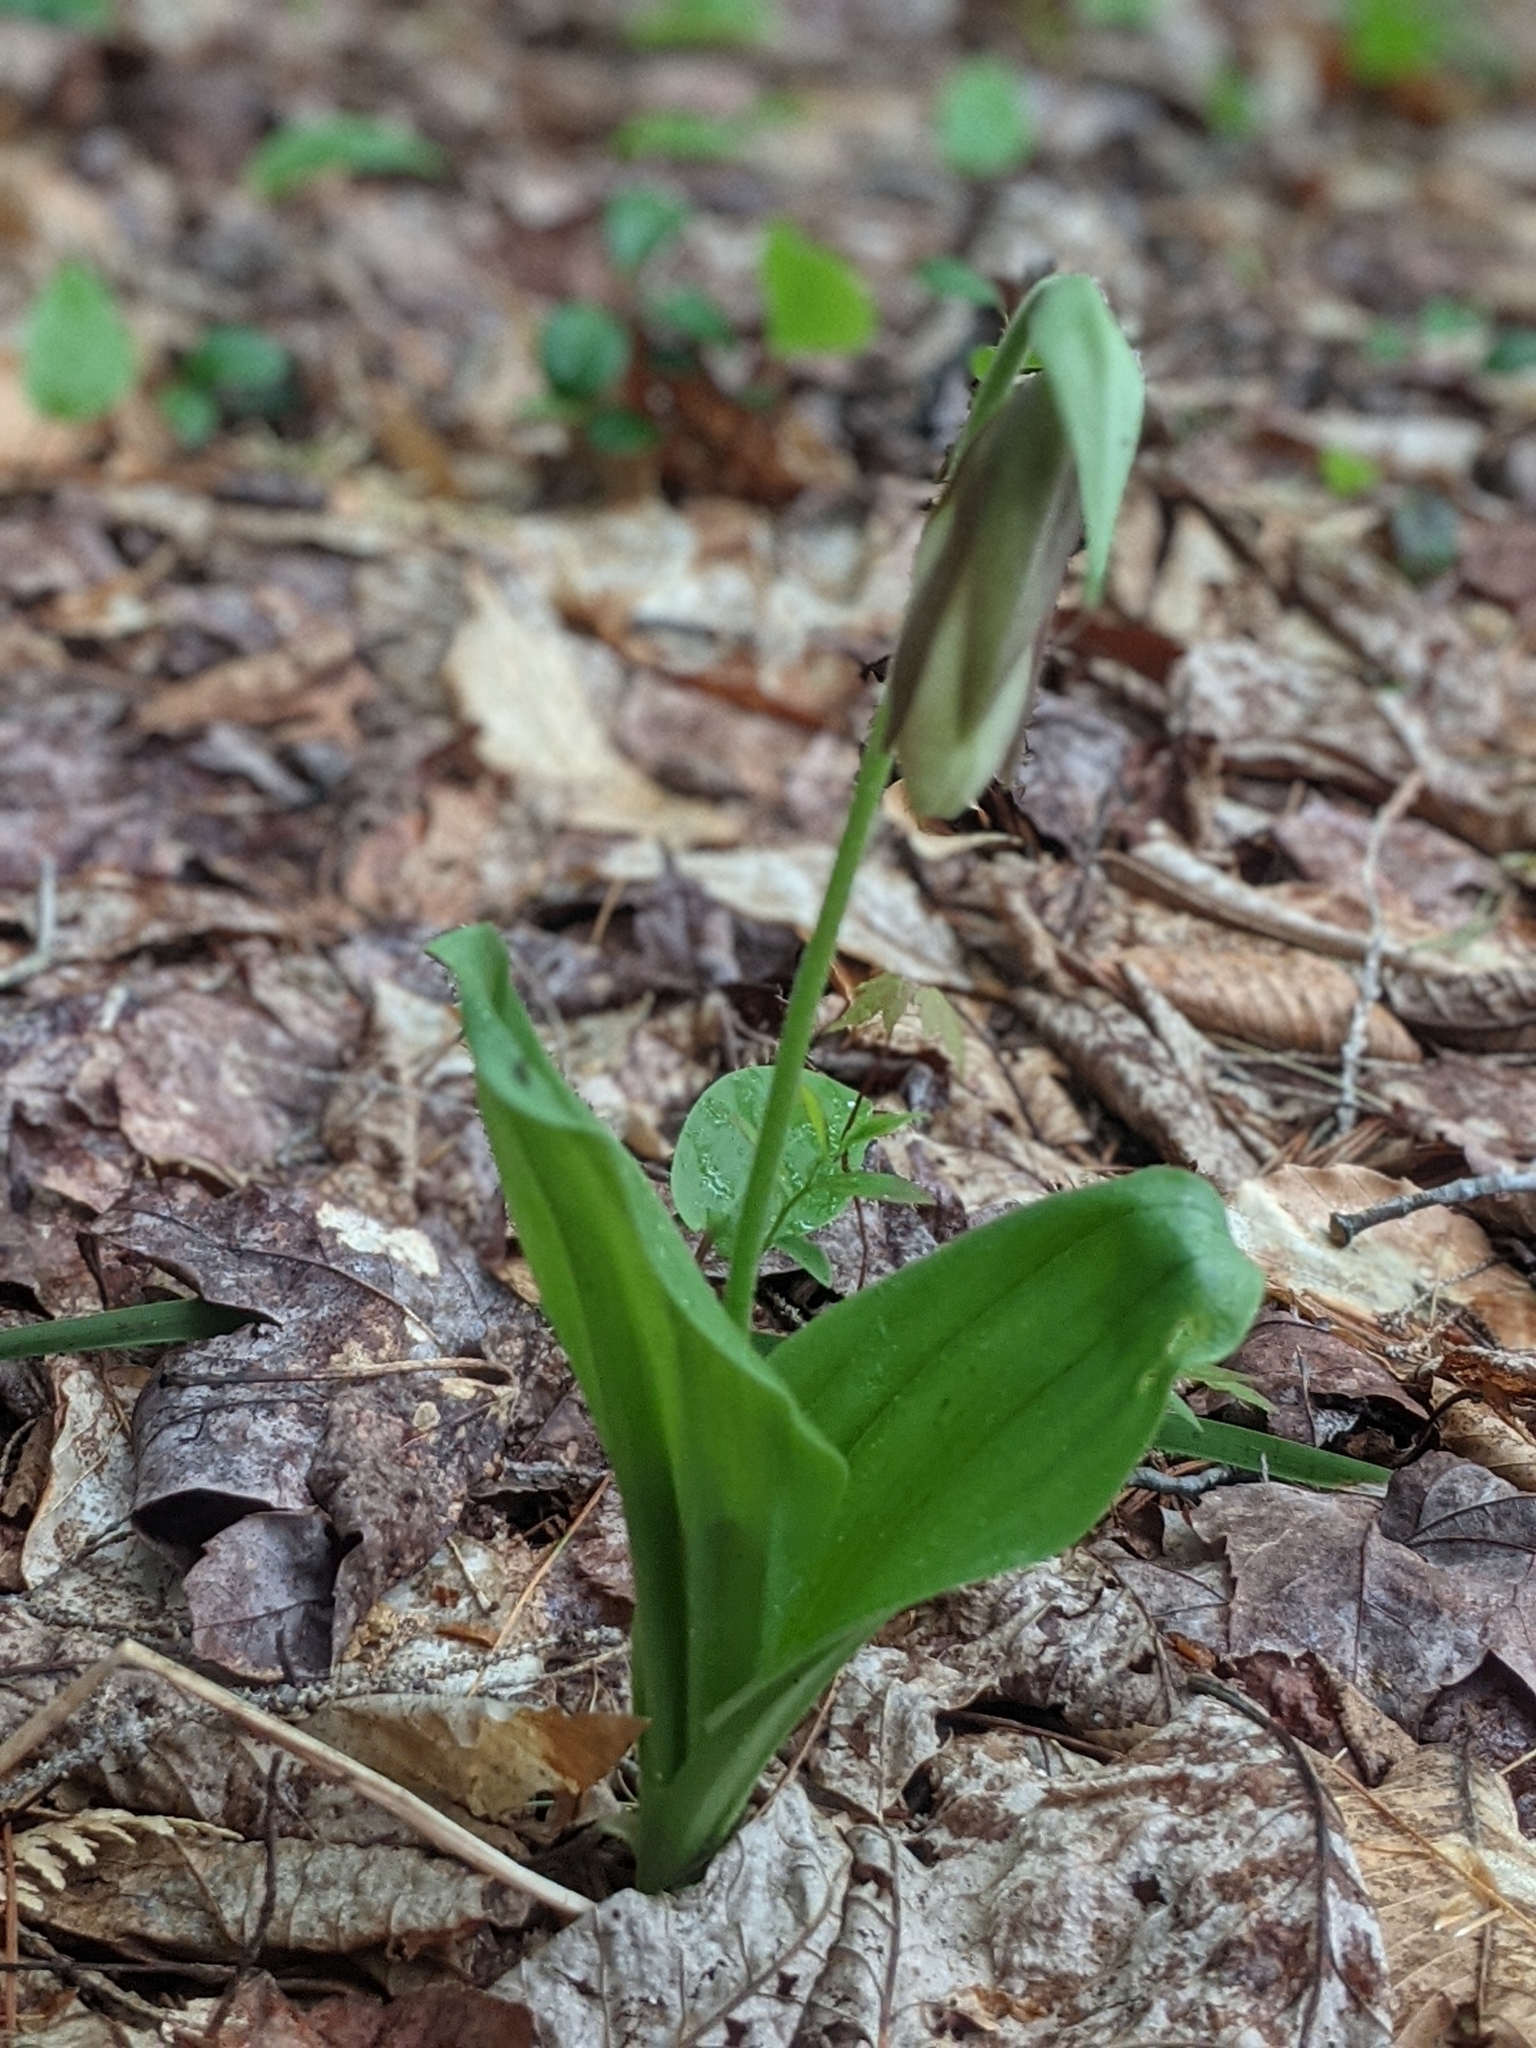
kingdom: Plantae
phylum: Tracheophyta
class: Liliopsida
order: Asparagales
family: Orchidaceae
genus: Cypripedium
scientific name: Cypripedium acaule
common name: Pink lady's-slipper
